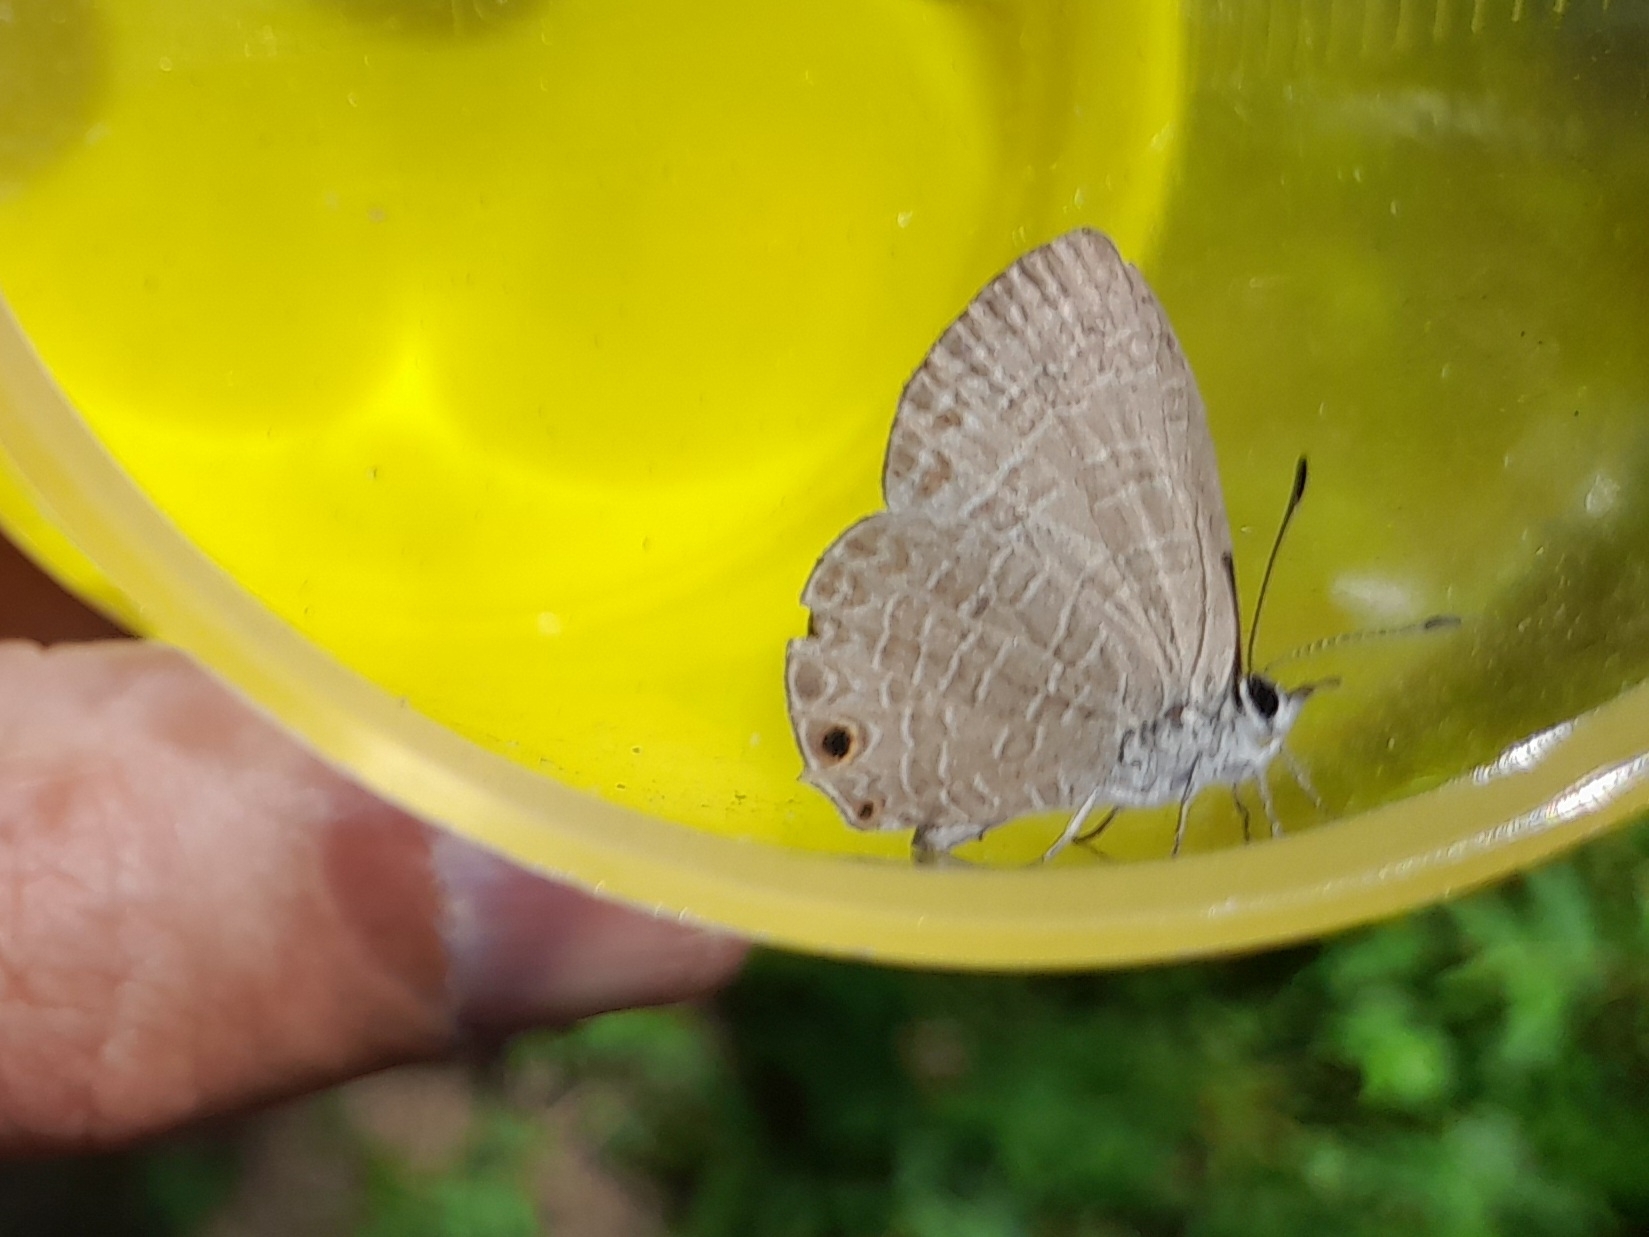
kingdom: Animalia
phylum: Arthropoda
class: Insecta
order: Lepidoptera
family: Lycaenidae
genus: Nacaduba
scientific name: Nacaduba berenice
